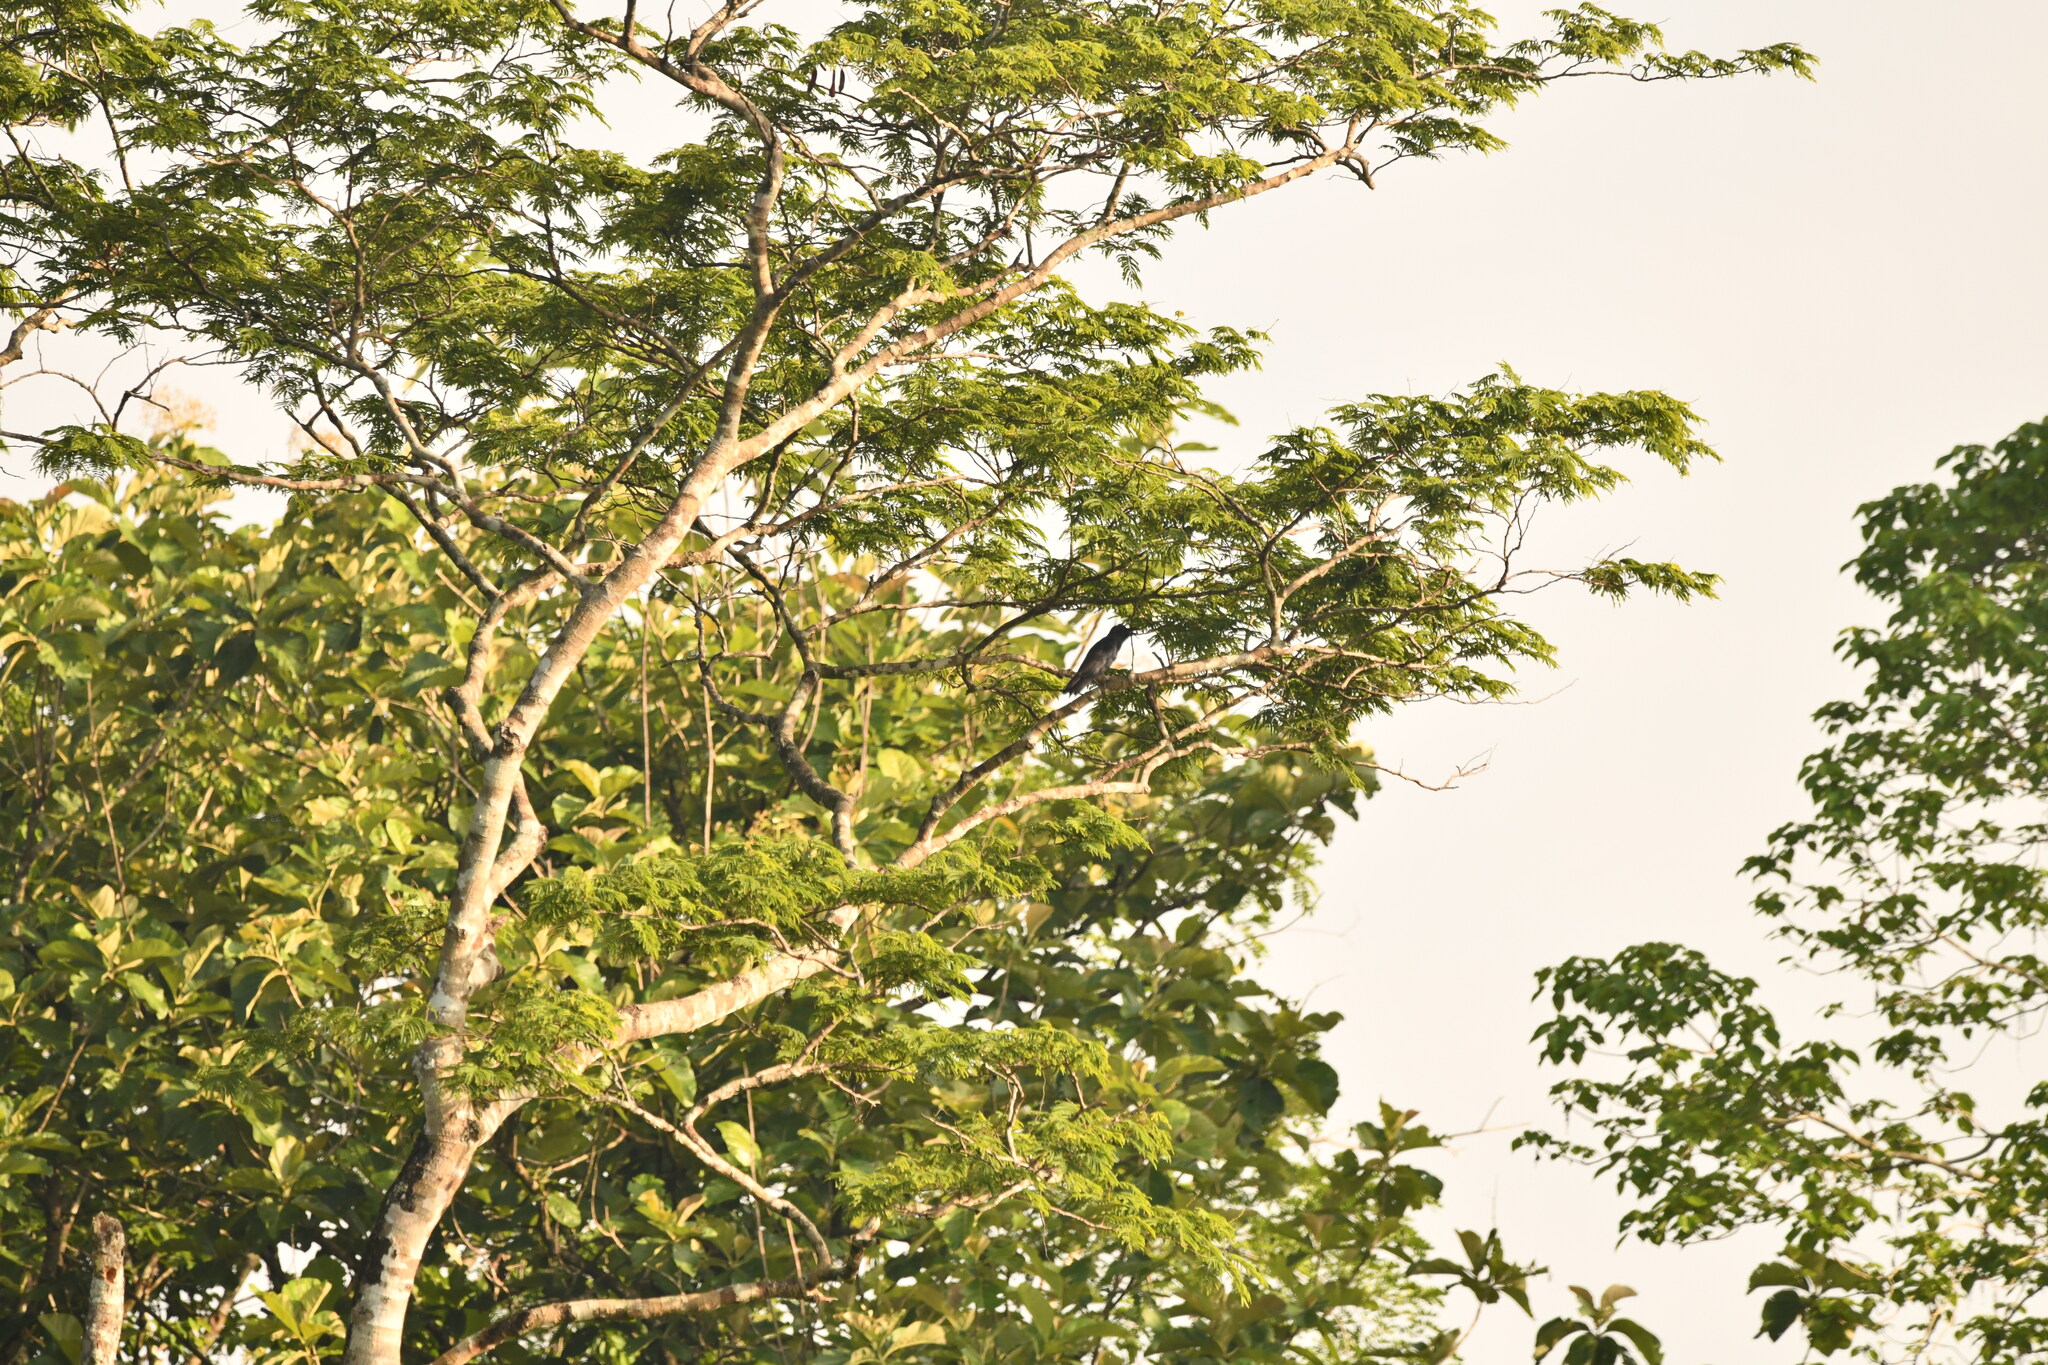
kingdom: Animalia
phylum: Chordata
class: Aves
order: Passeriformes
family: Corvidae
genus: Corvus
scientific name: Corvus macrorhynchos
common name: Large-billed crow
